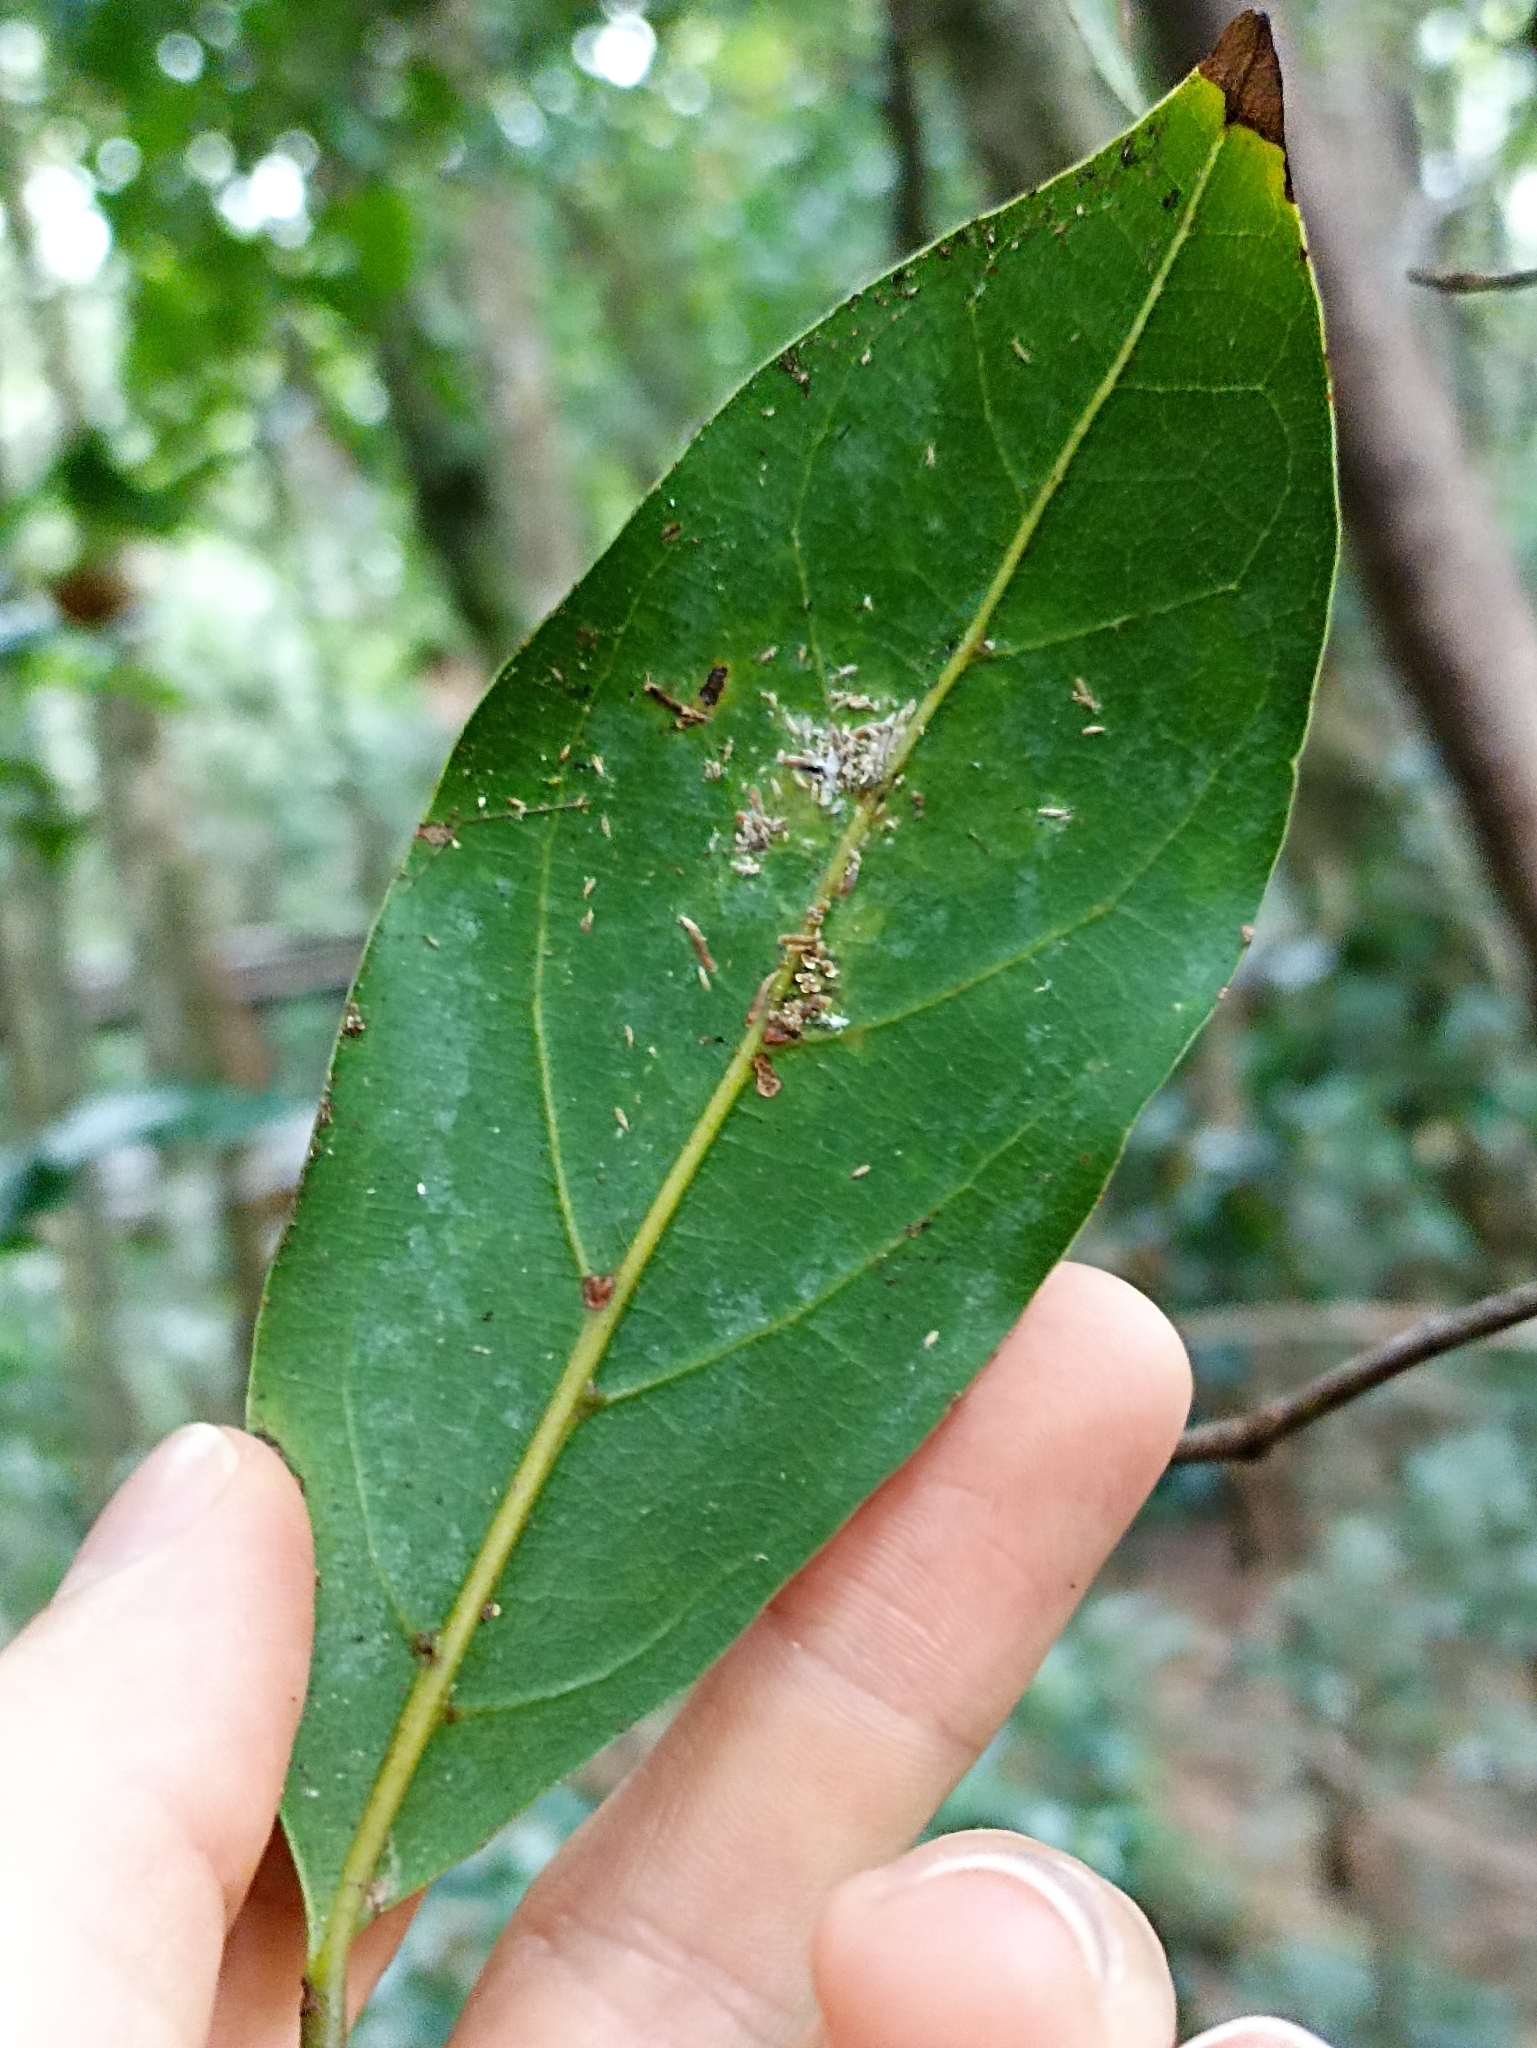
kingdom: Plantae
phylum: Tracheophyta
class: Magnoliopsida
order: Laurales
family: Lauraceae
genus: Endiandra
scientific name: Endiandra discolor
